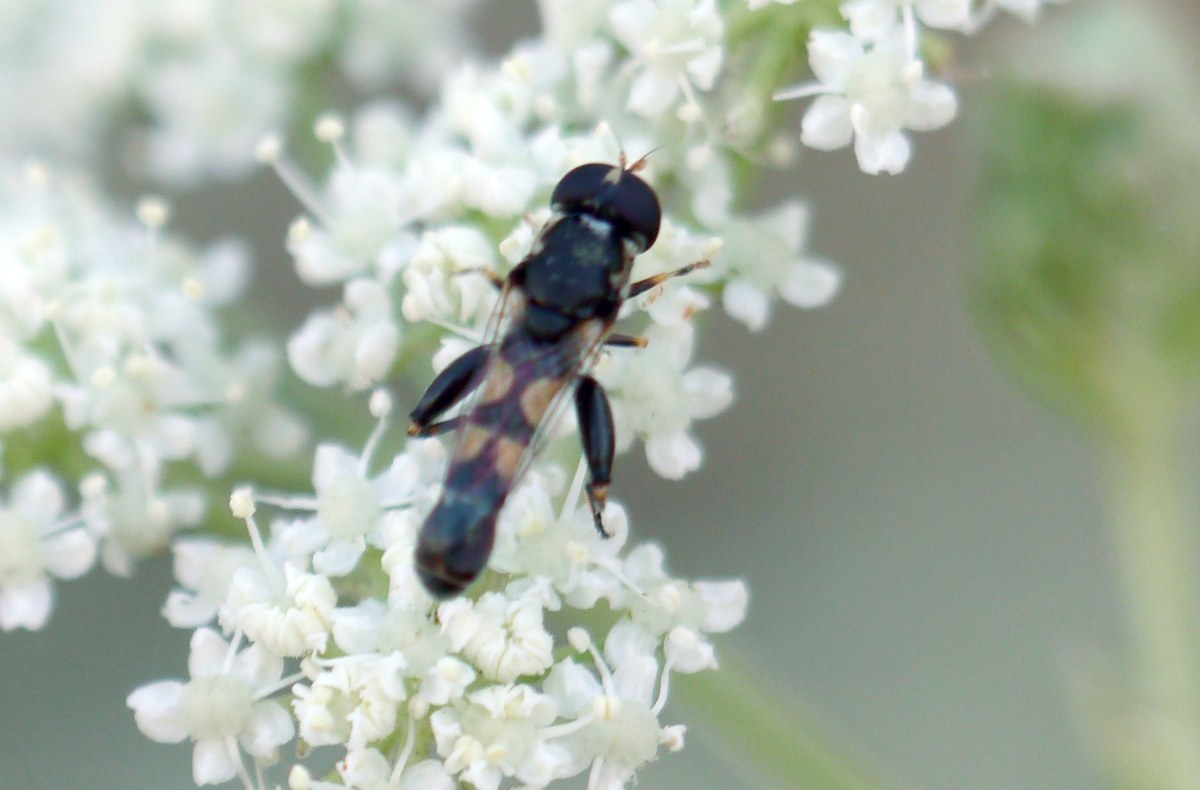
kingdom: Animalia
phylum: Arthropoda
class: Insecta
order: Diptera
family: Syrphidae
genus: Syritta
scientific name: Syritta pipiens
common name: Hover fly
